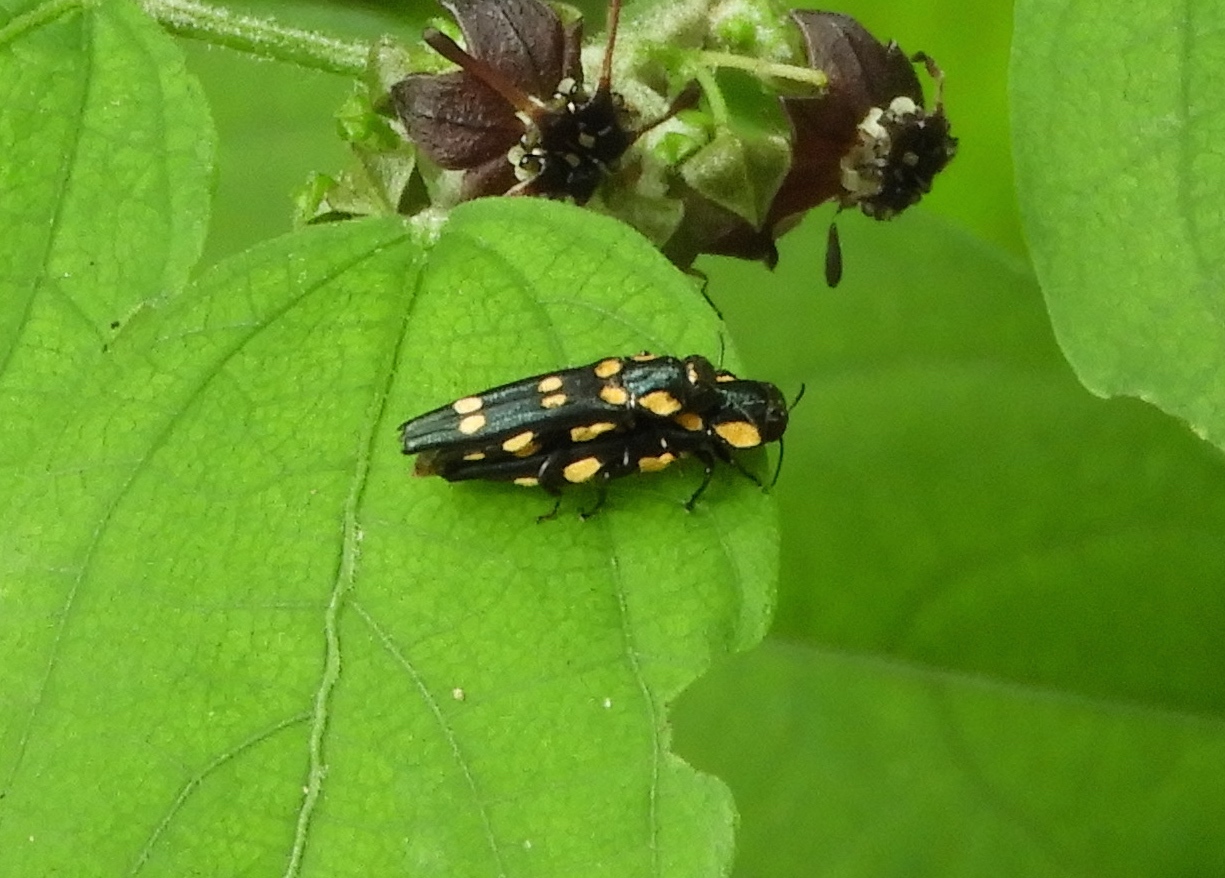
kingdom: Animalia
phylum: Arthropoda
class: Insecta
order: Coleoptera
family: Buprestidae
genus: Agrilus
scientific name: Agrilus xanthonotus
